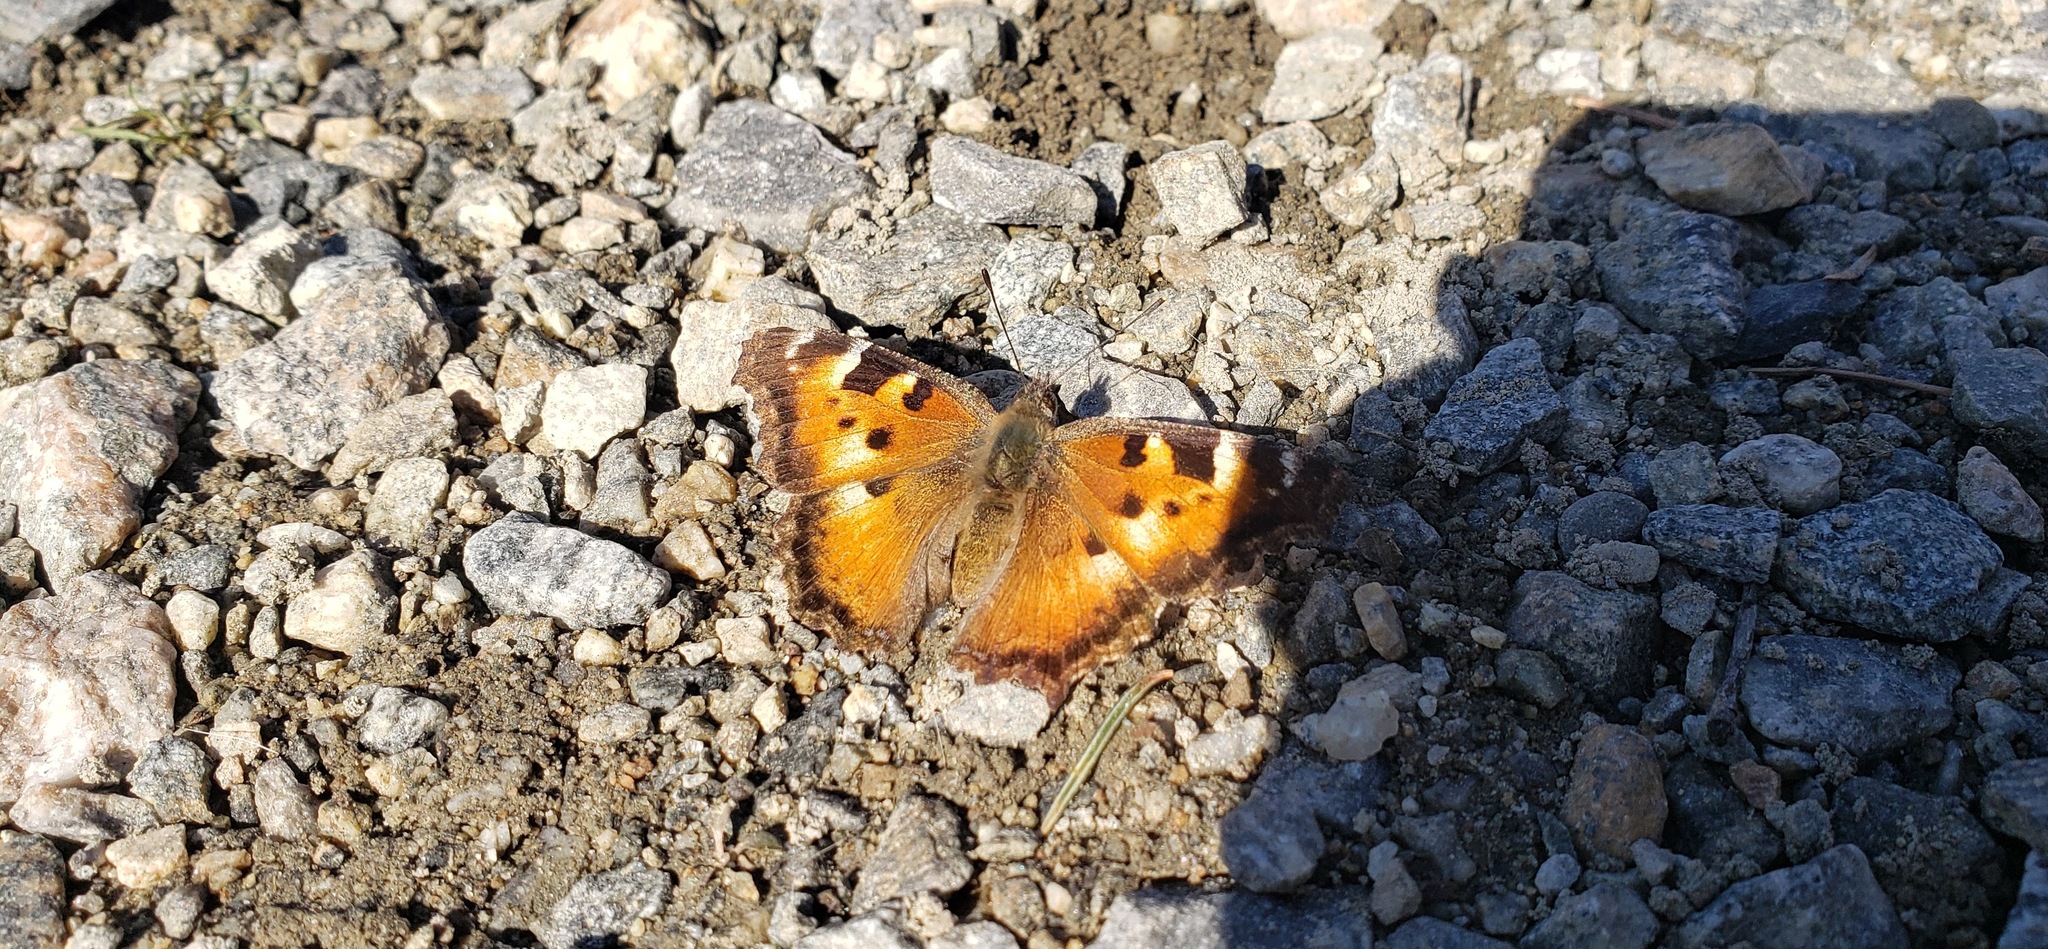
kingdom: Animalia
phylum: Arthropoda
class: Insecta
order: Lepidoptera
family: Nymphalidae
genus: Nymphalis
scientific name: Nymphalis californica
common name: California tortoiseshell
